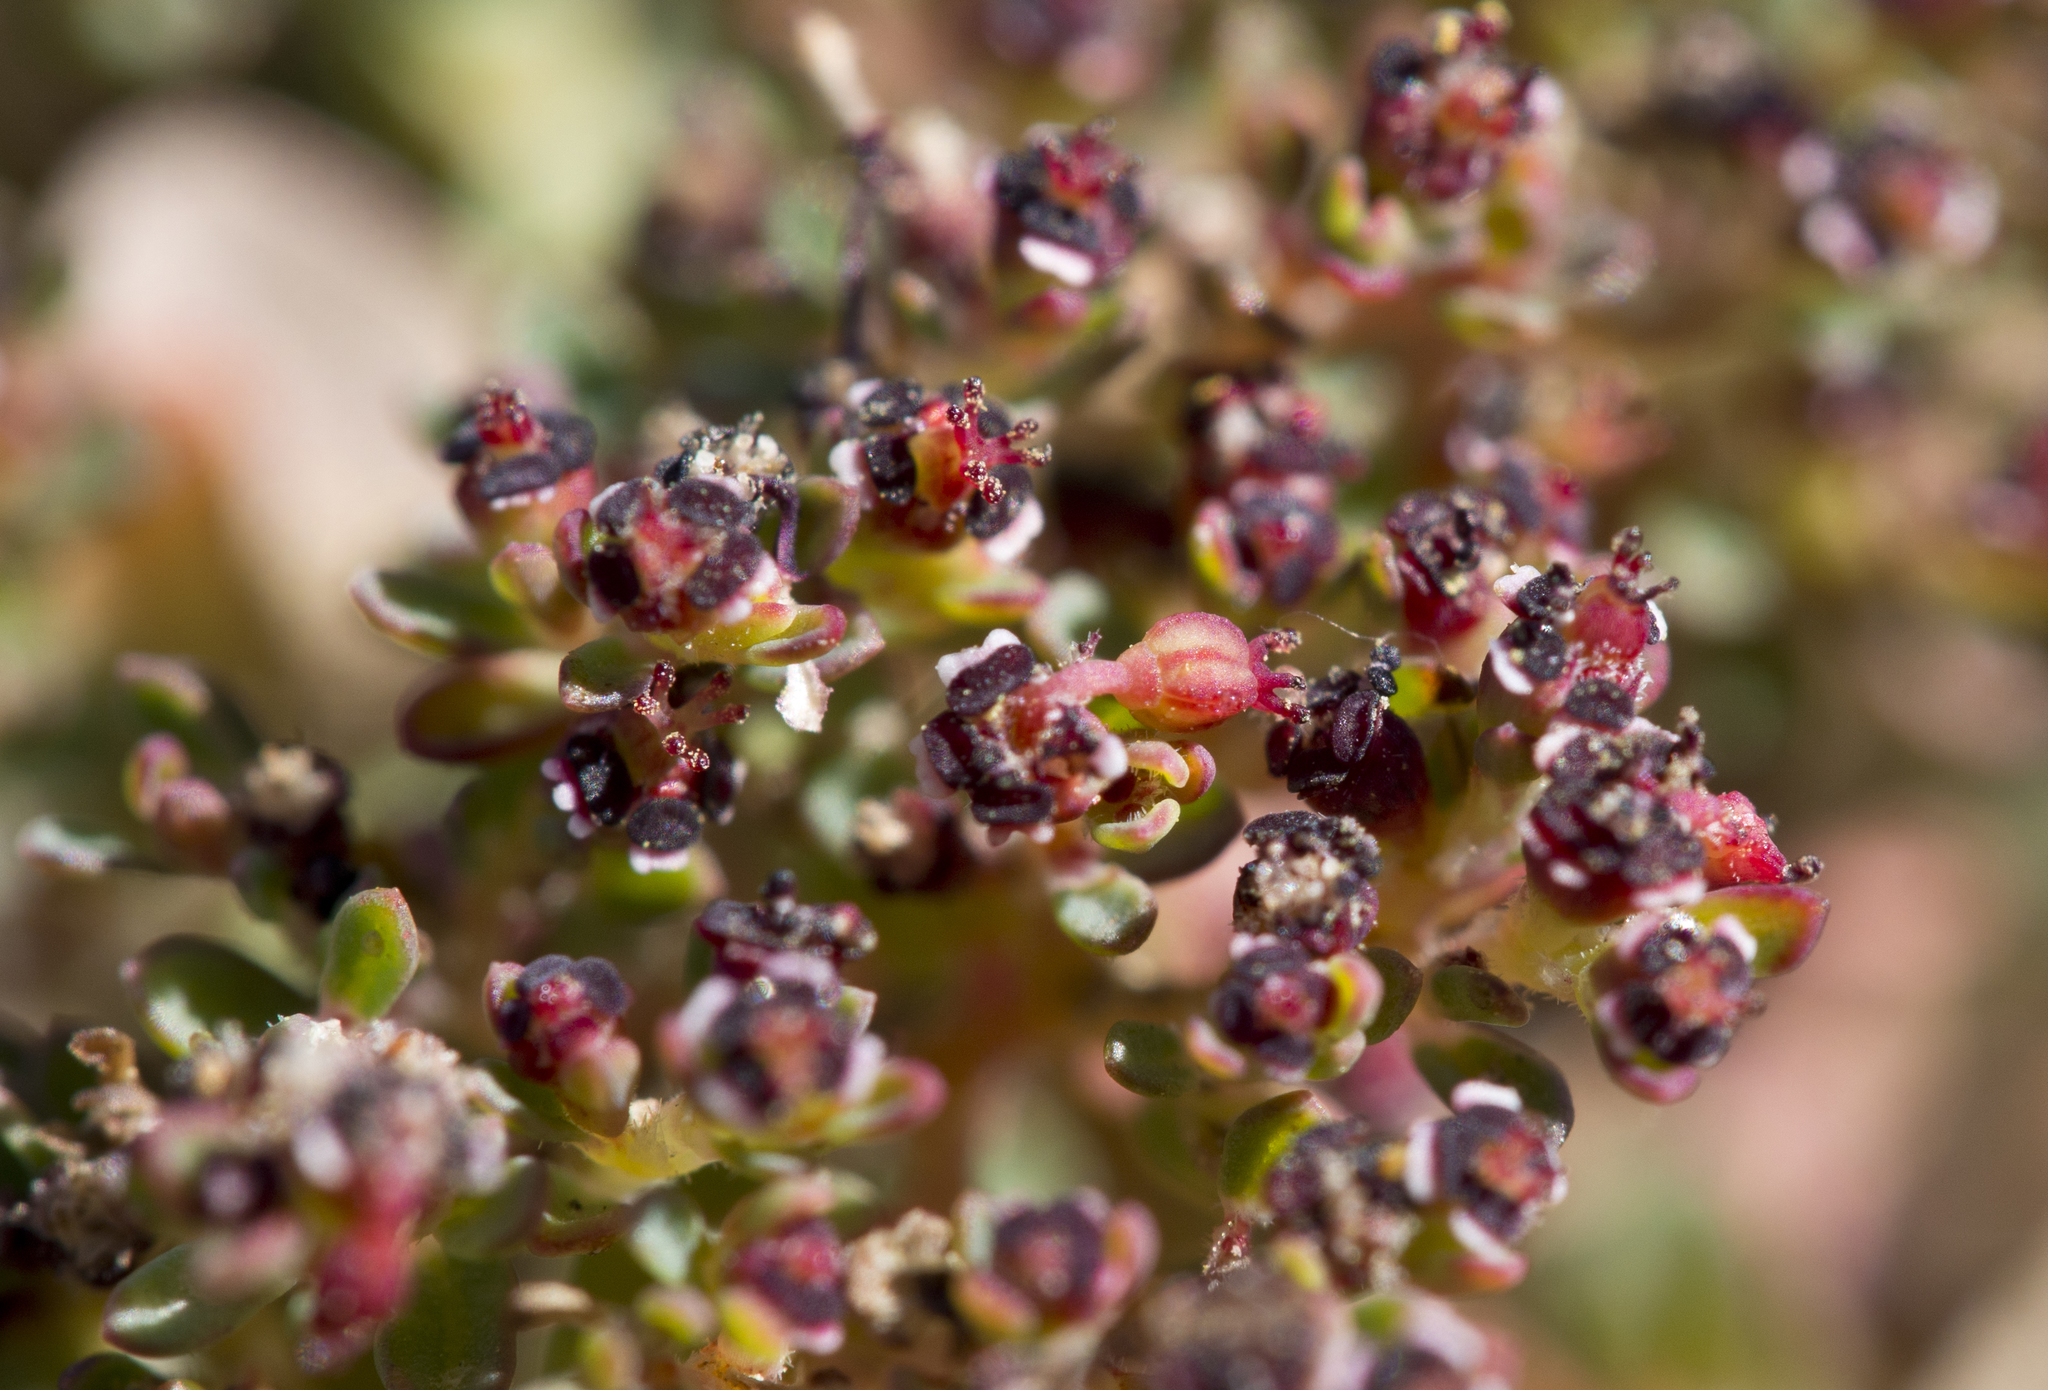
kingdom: Plantae
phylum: Tracheophyta
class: Magnoliopsida
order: Malpighiales
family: Euphorbiaceae
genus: Euphorbia
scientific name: Euphorbia polycarpa
